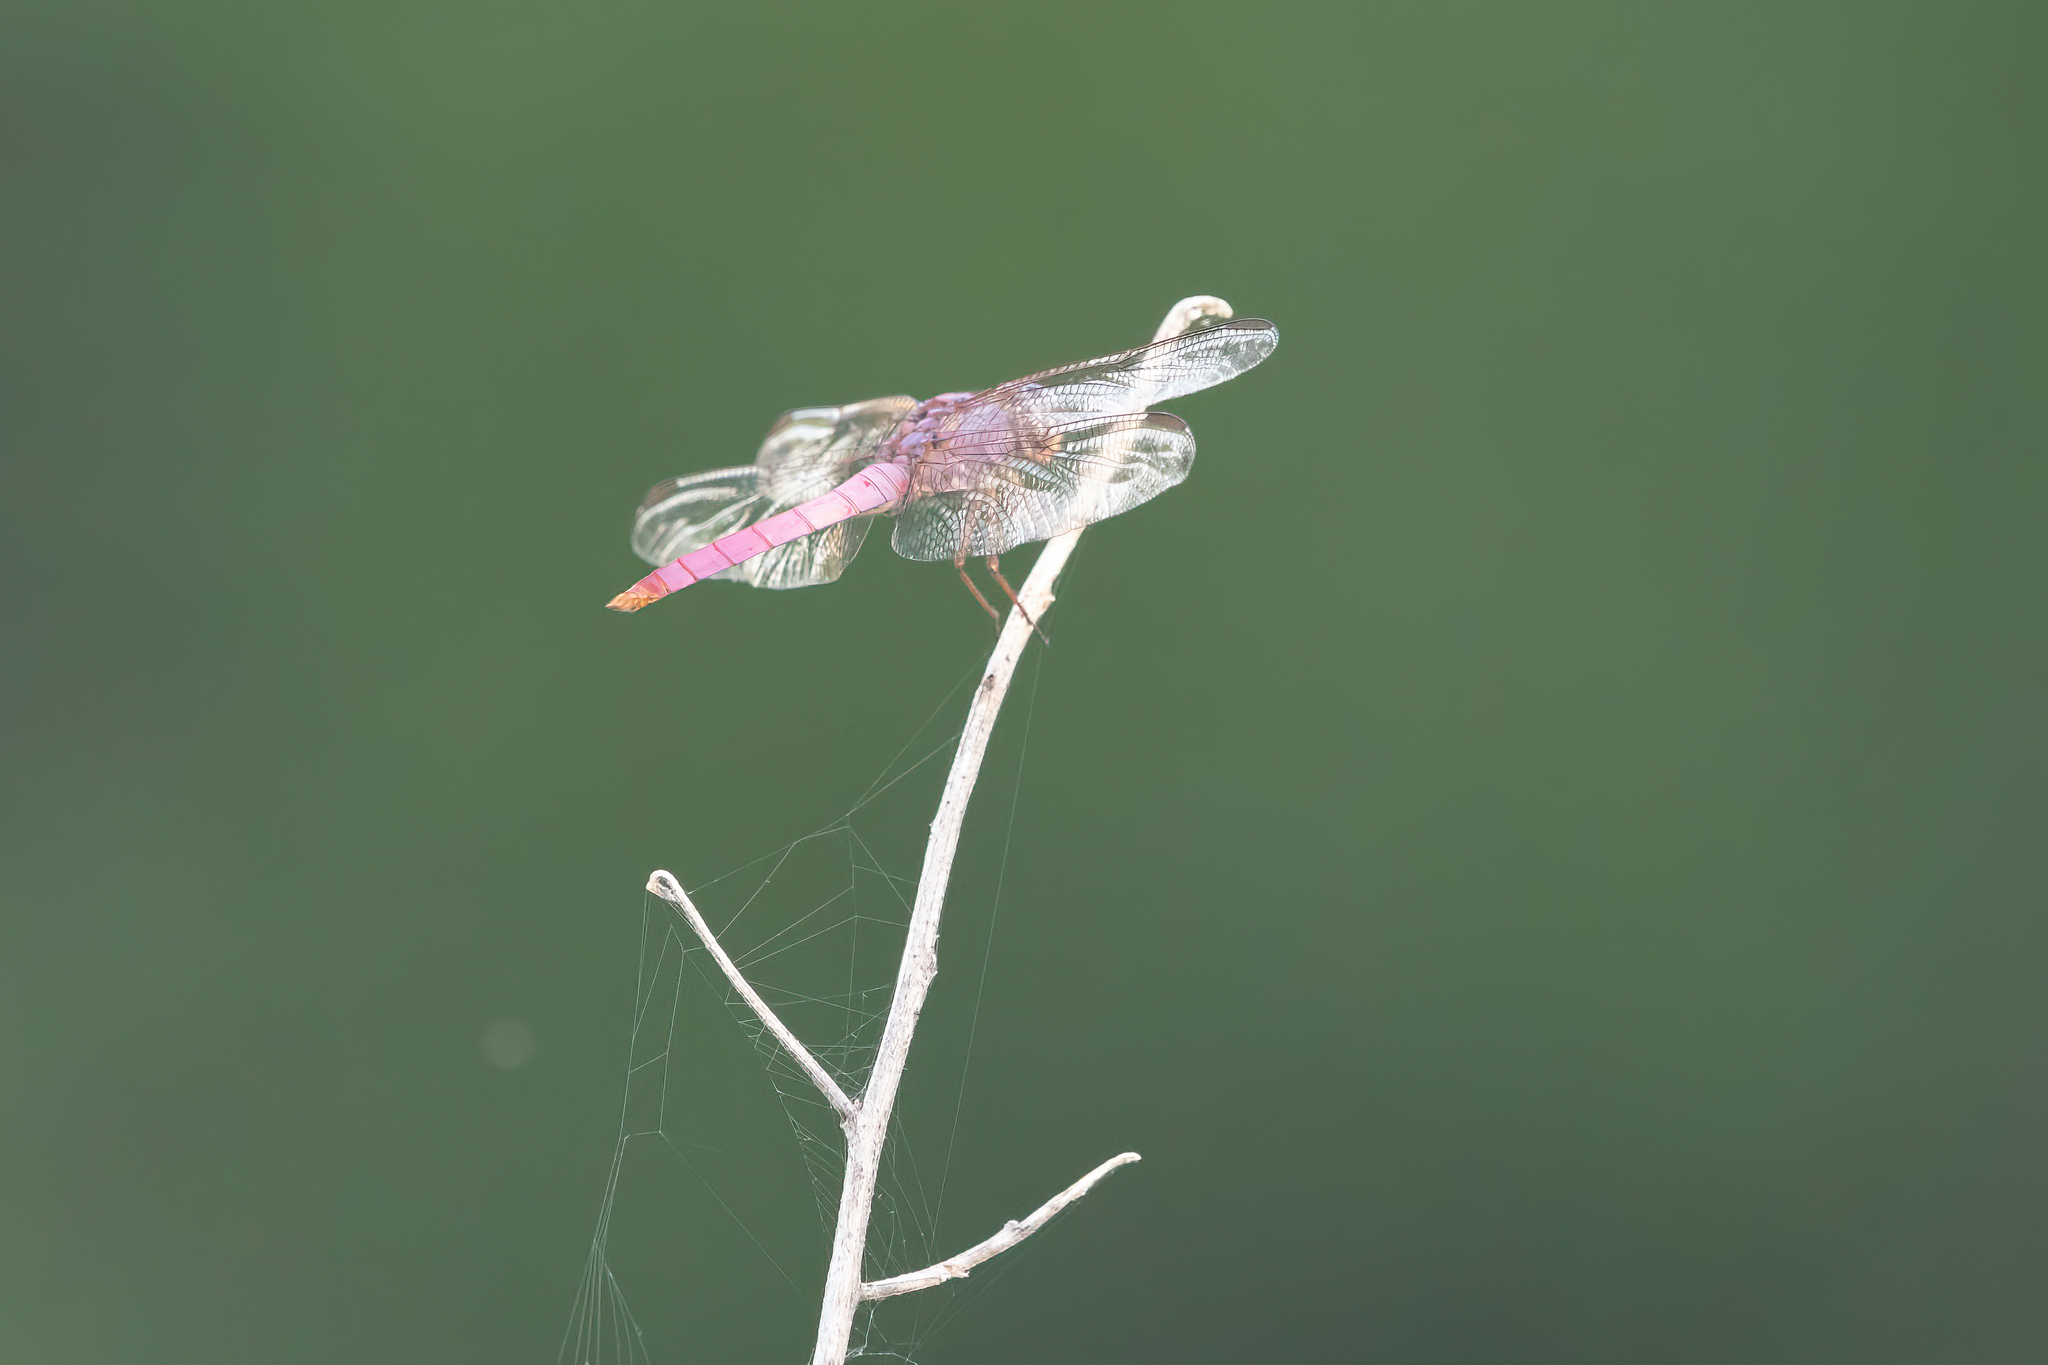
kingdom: Animalia
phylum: Arthropoda
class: Insecta
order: Odonata
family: Libellulidae
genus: Orthemis
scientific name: Orthemis ferruginea
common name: Roseate skimmer
